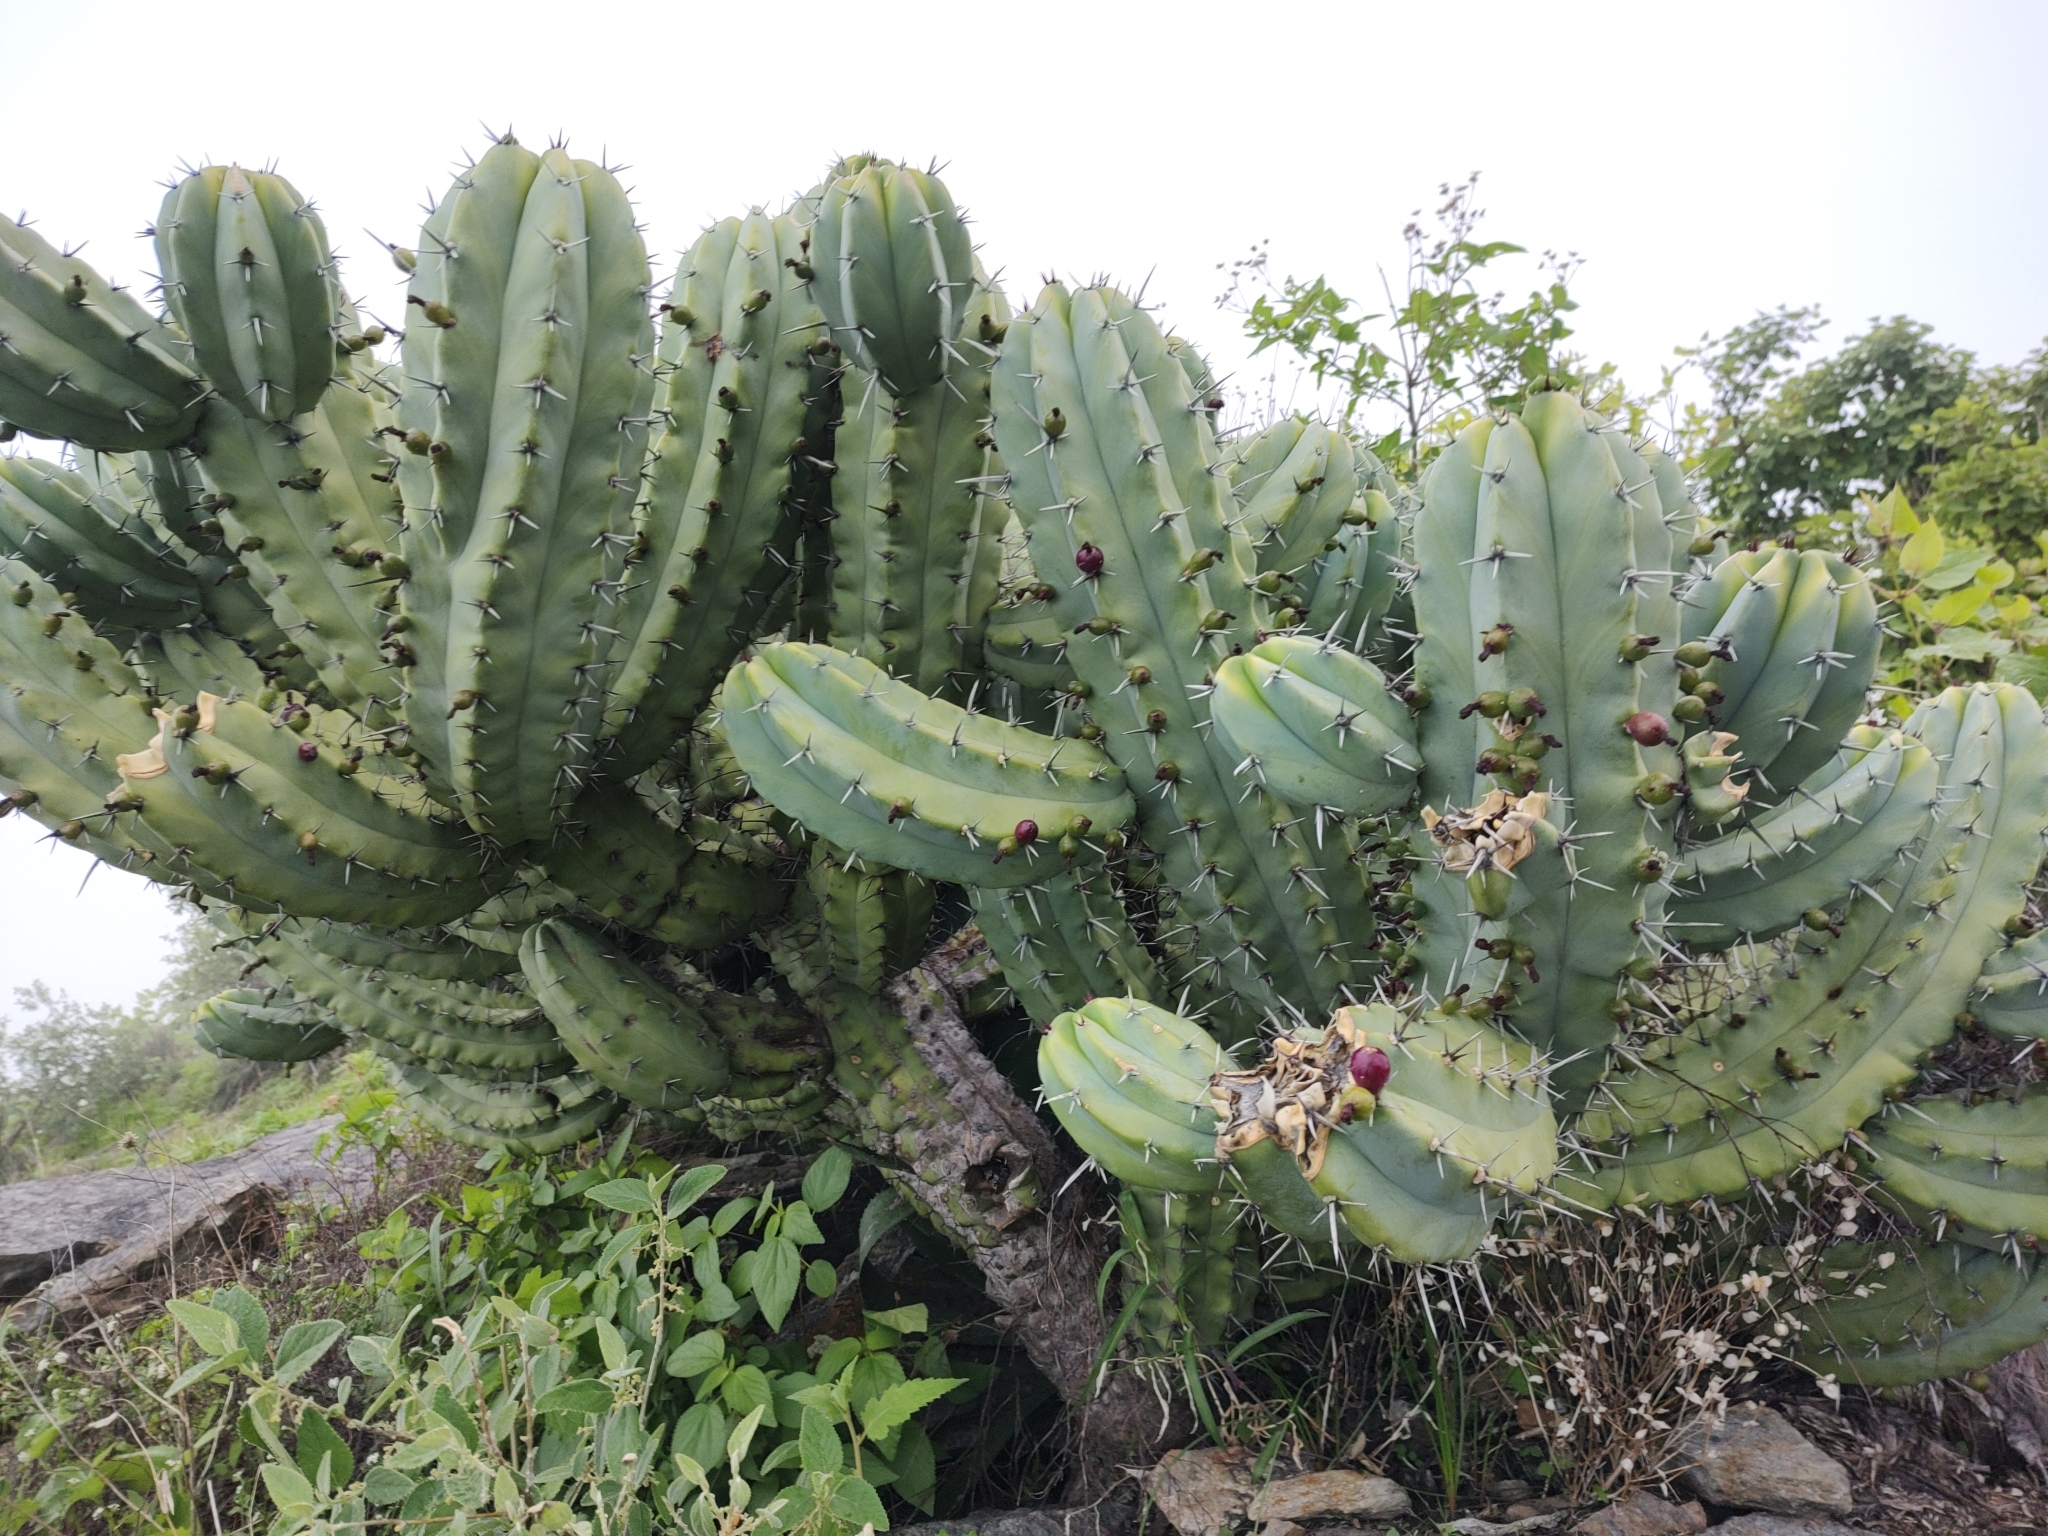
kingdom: Plantae
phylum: Tracheophyta
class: Magnoliopsida
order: Caryophyllales
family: Cactaceae
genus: Myrtillocactus
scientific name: Myrtillocactus cochal
